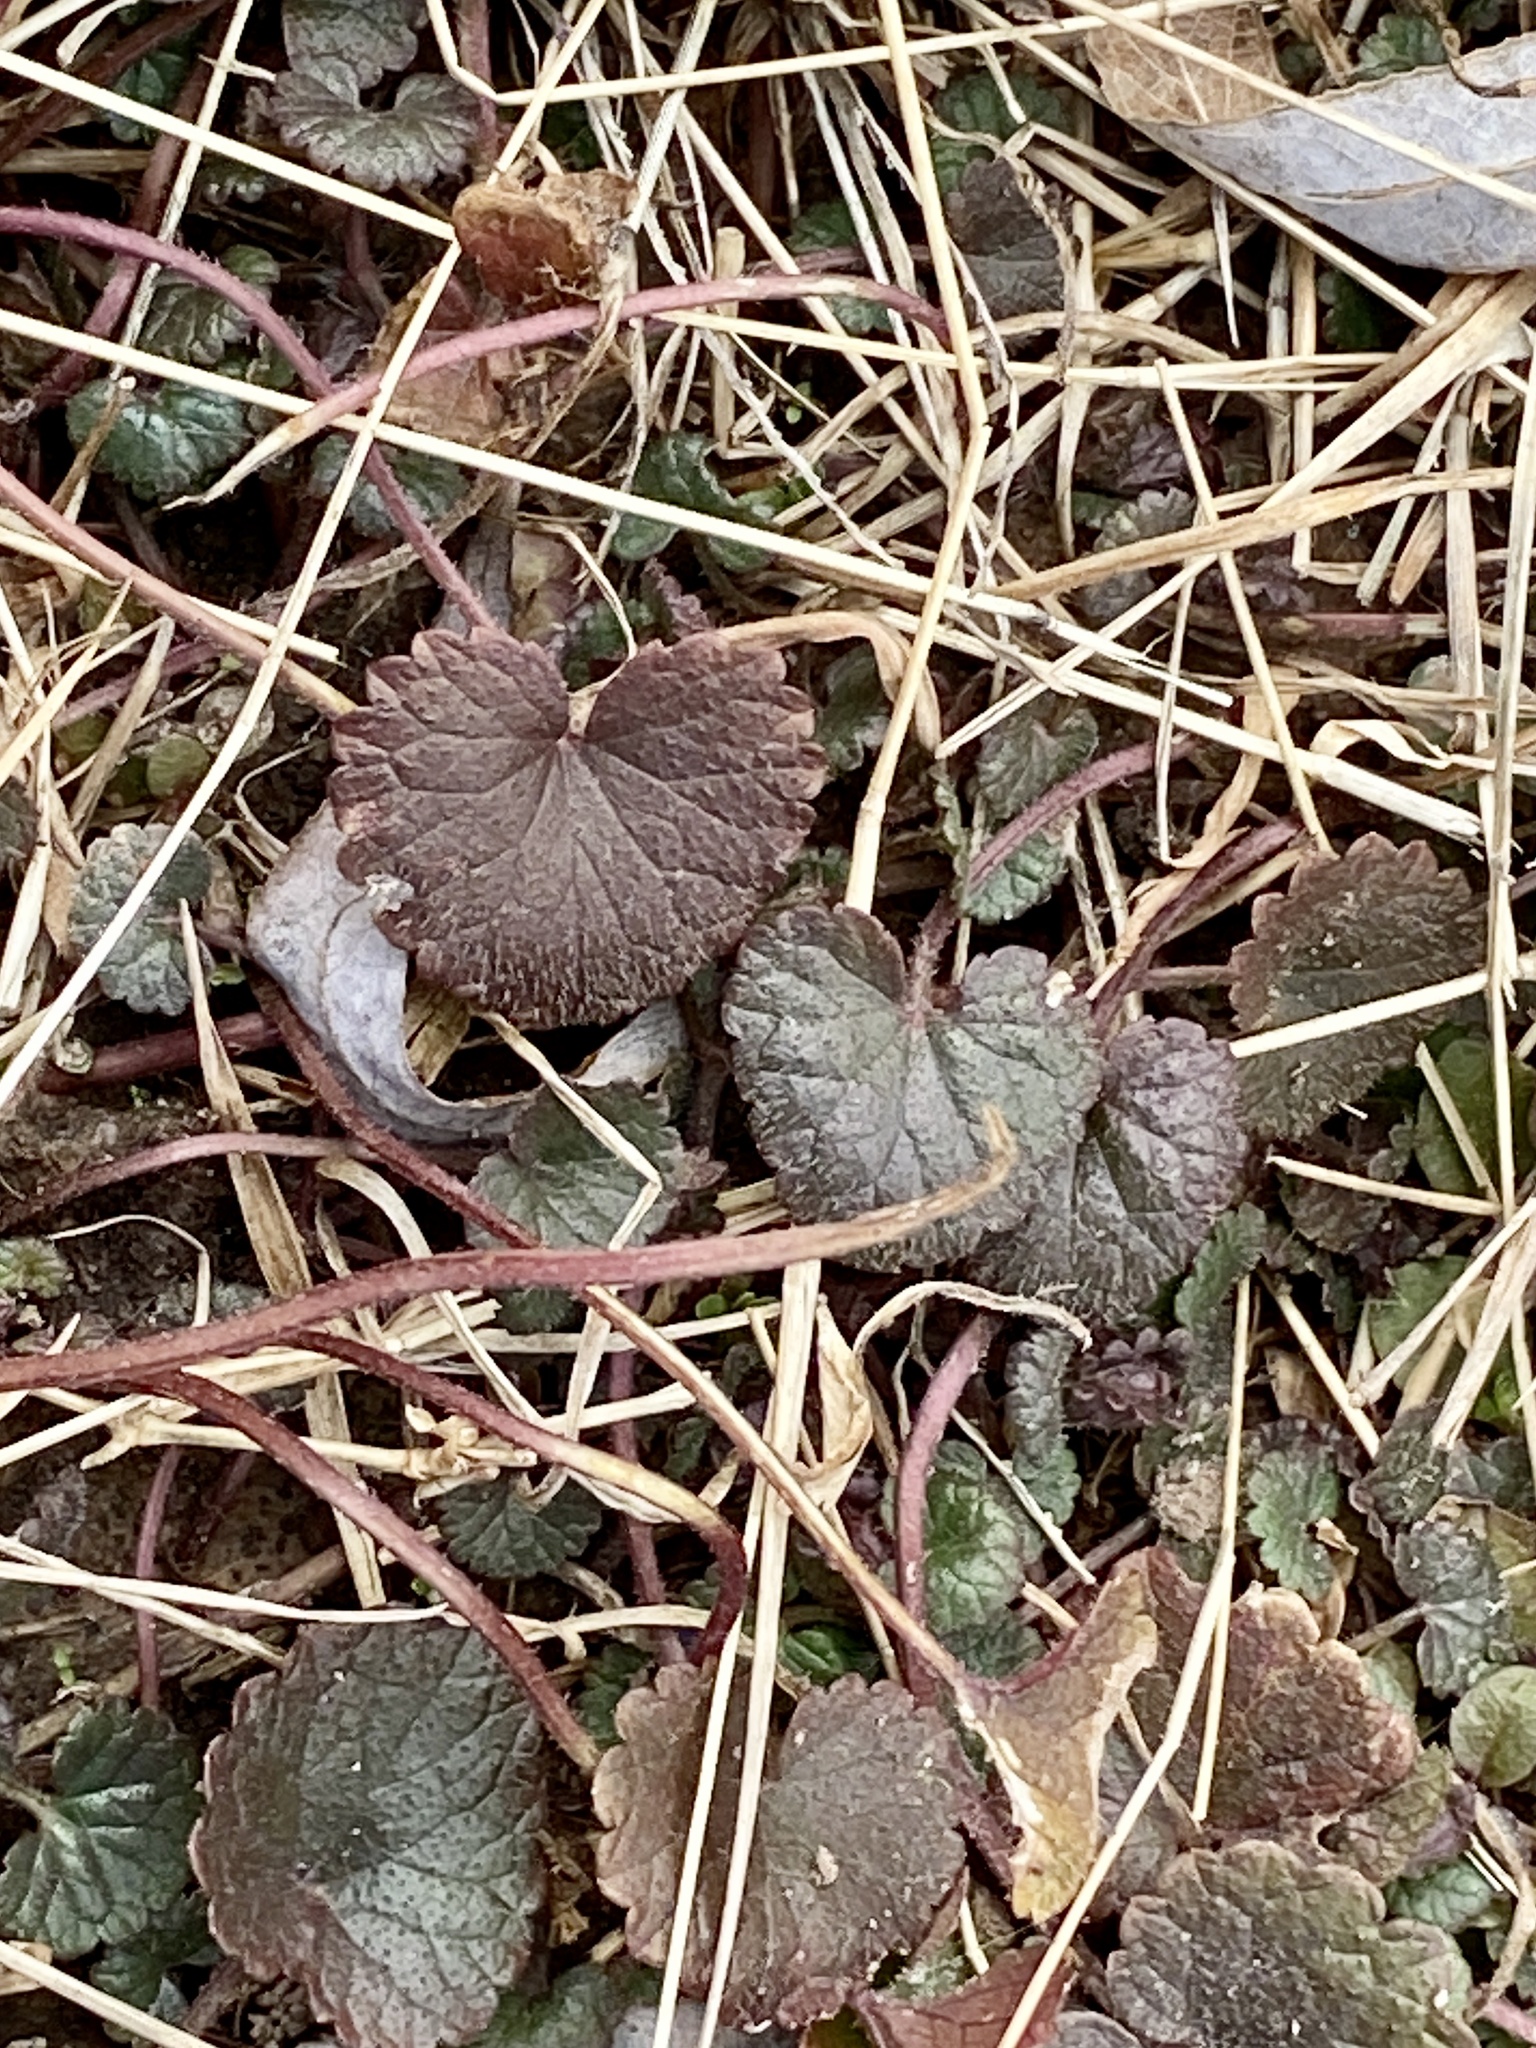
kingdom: Plantae
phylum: Tracheophyta
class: Magnoliopsida
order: Lamiales
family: Lamiaceae
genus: Glechoma
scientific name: Glechoma hederacea
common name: Ground ivy
